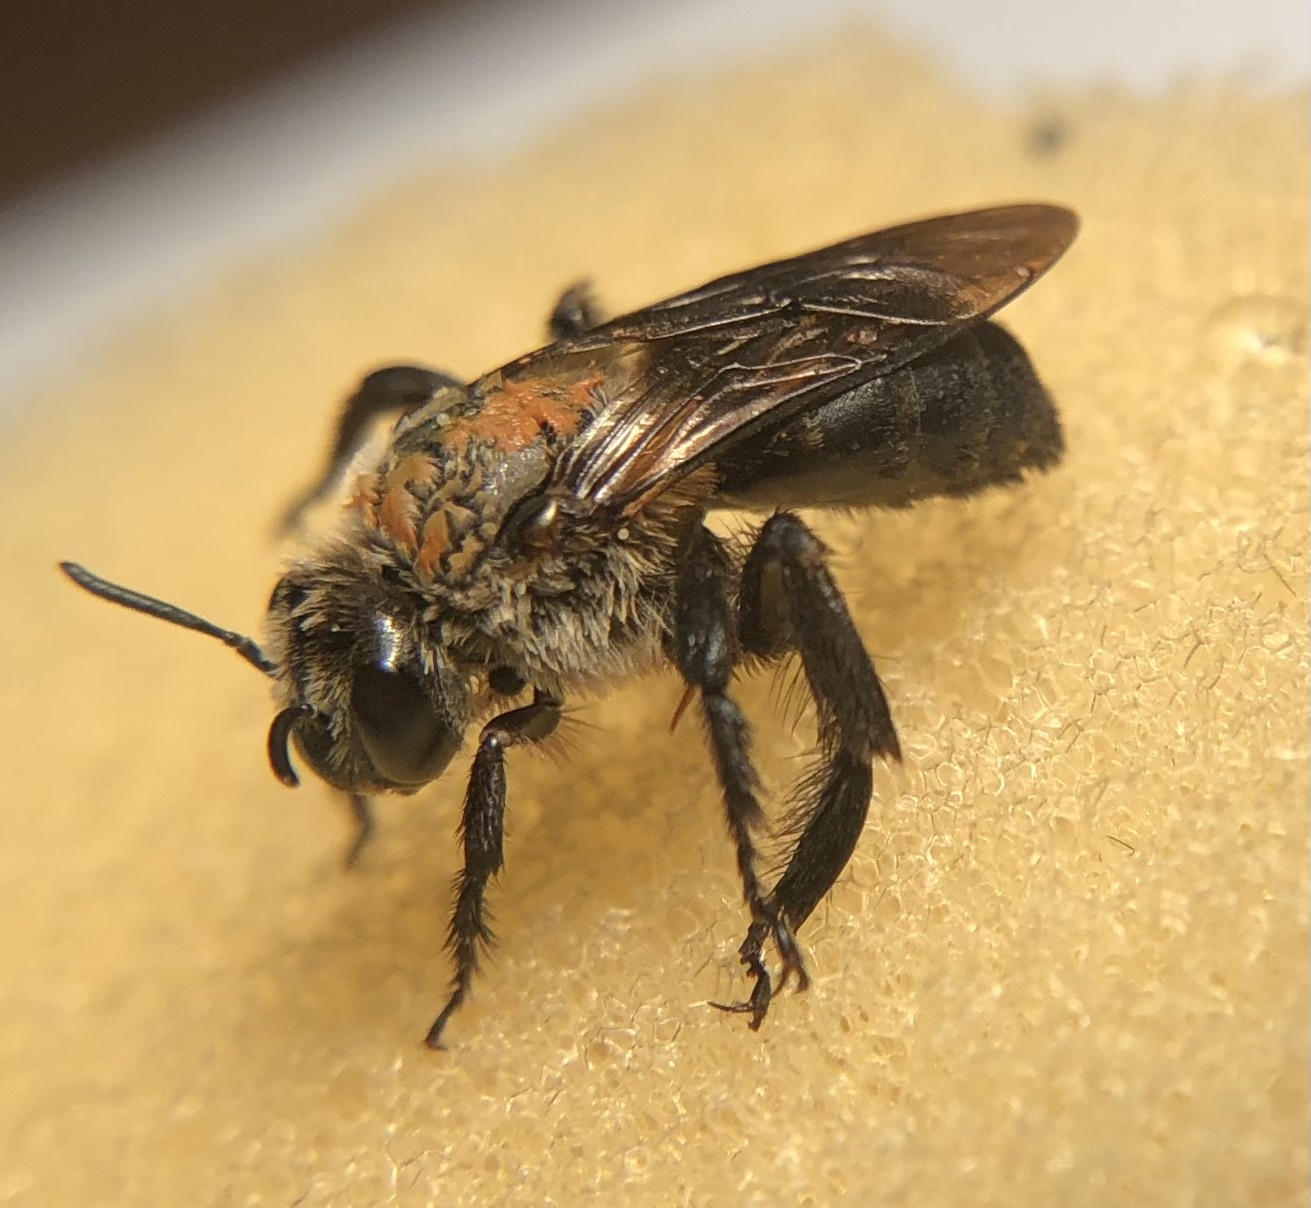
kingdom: Animalia
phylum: Arthropoda
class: Insecta
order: Hymenoptera
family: Apidae
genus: Ptilothrix
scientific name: Ptilothrix bombiformis
